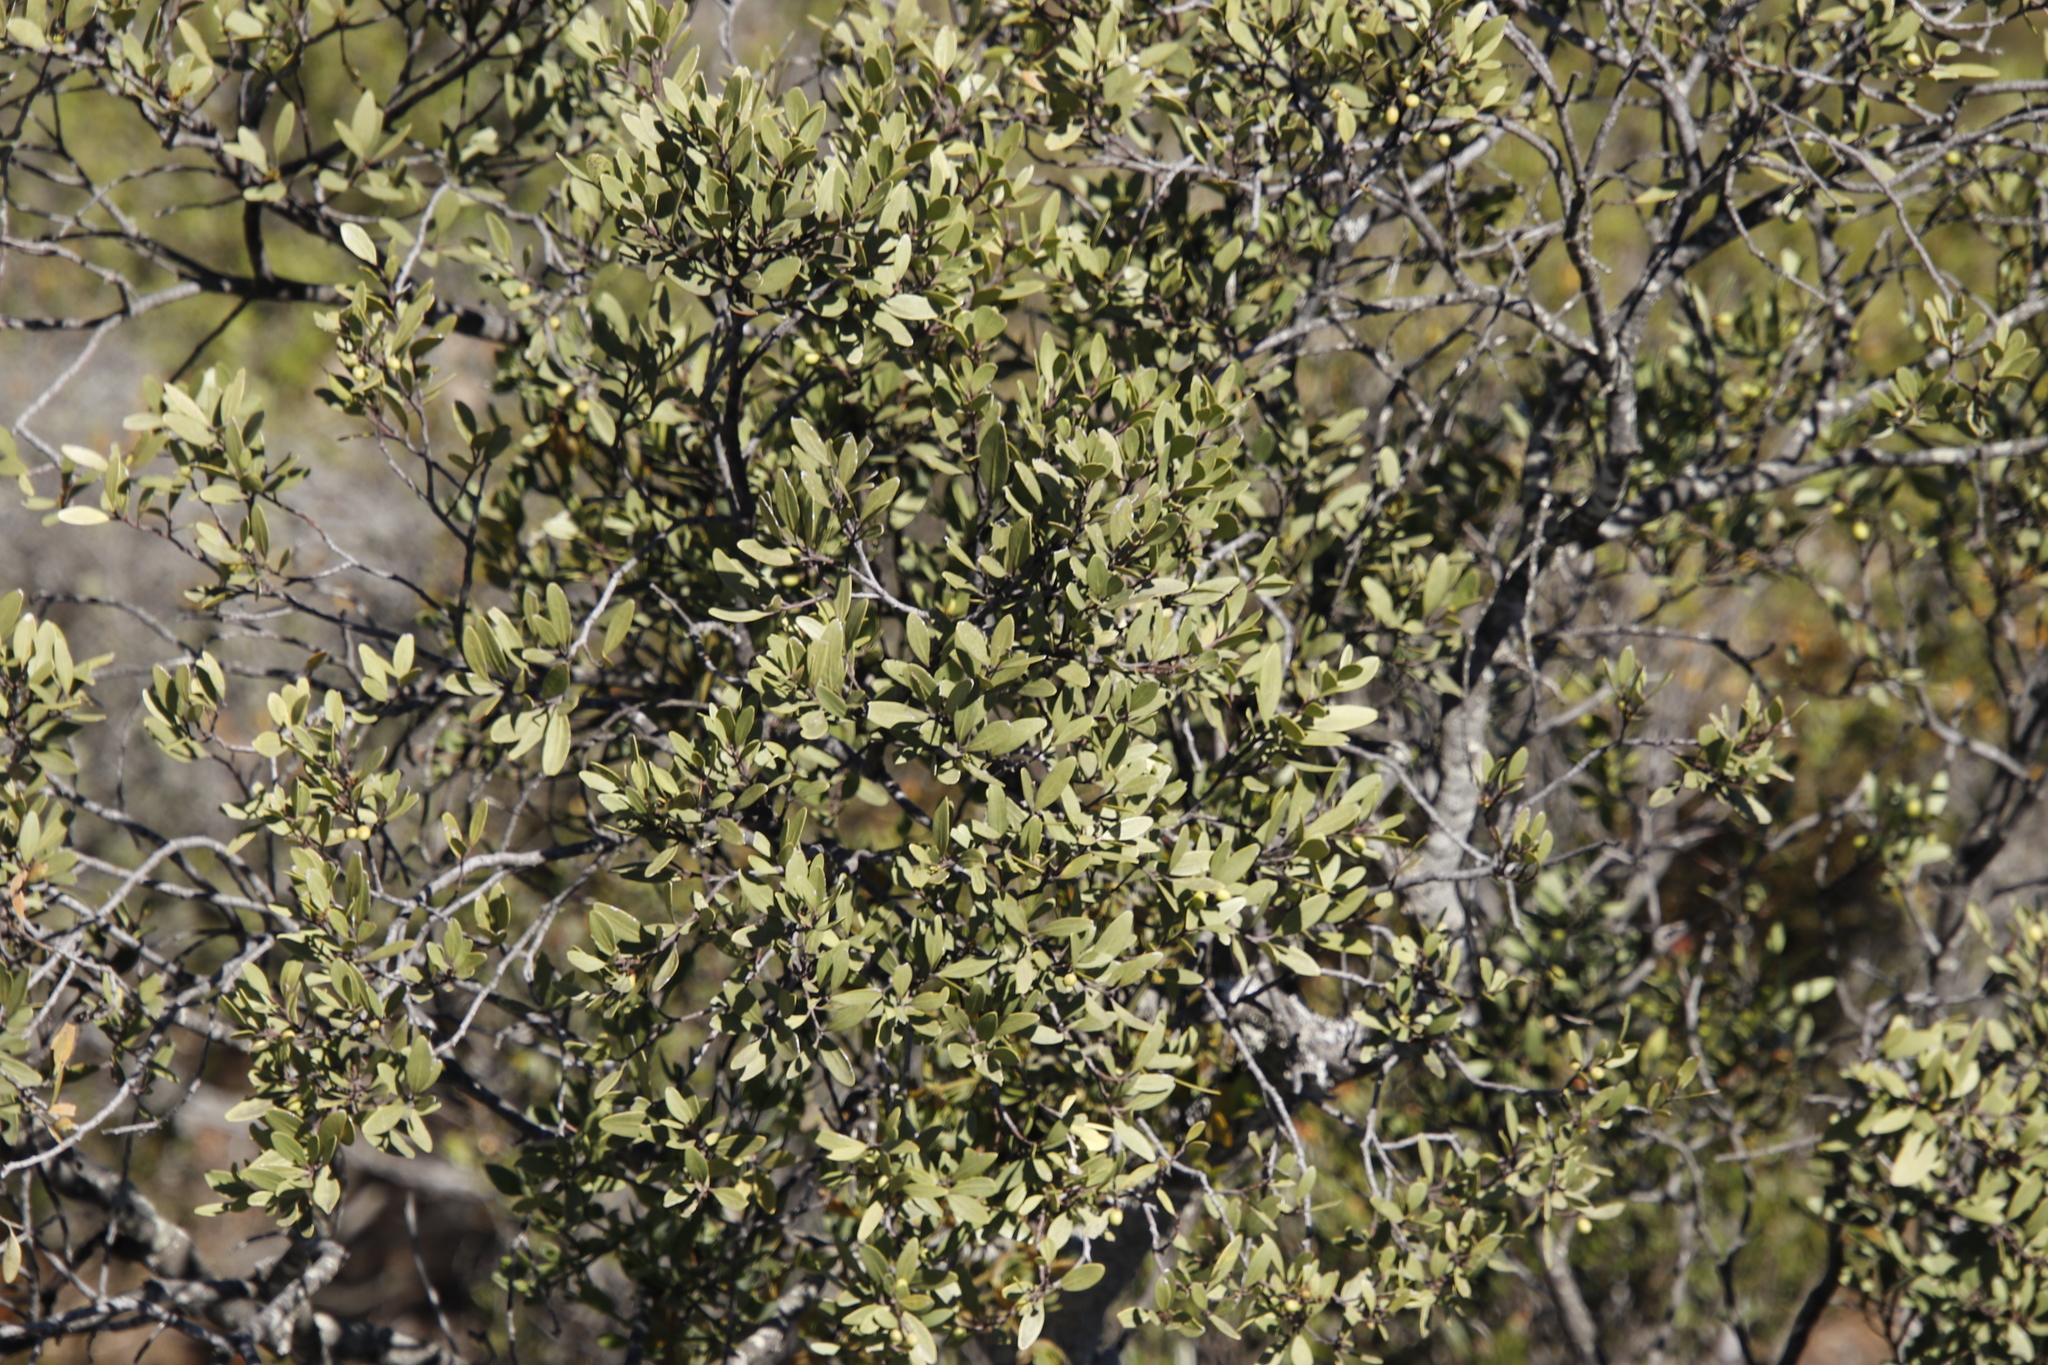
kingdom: Plantae
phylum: Tracheophyta
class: Magnoliopsida
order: Celastrales
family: Celastraceae
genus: Gymnosporia
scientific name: Gymnosporia laurina
